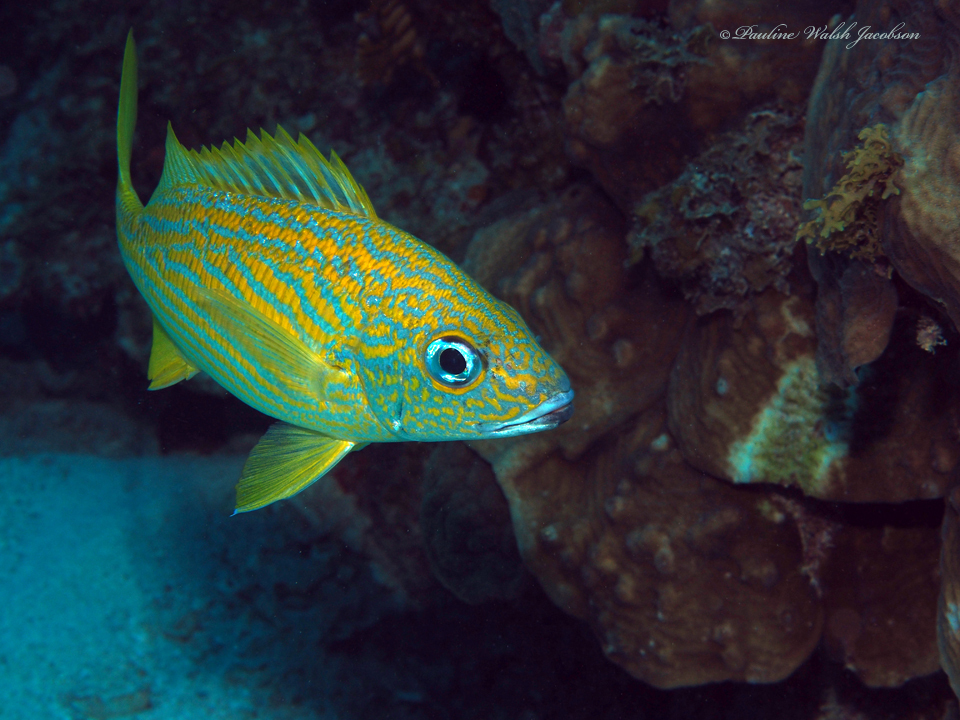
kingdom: Animalia
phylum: Chordata
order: Perciformes
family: Haemulidae
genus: Haemulon
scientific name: Haemulon flavolineatum
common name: French grunt
